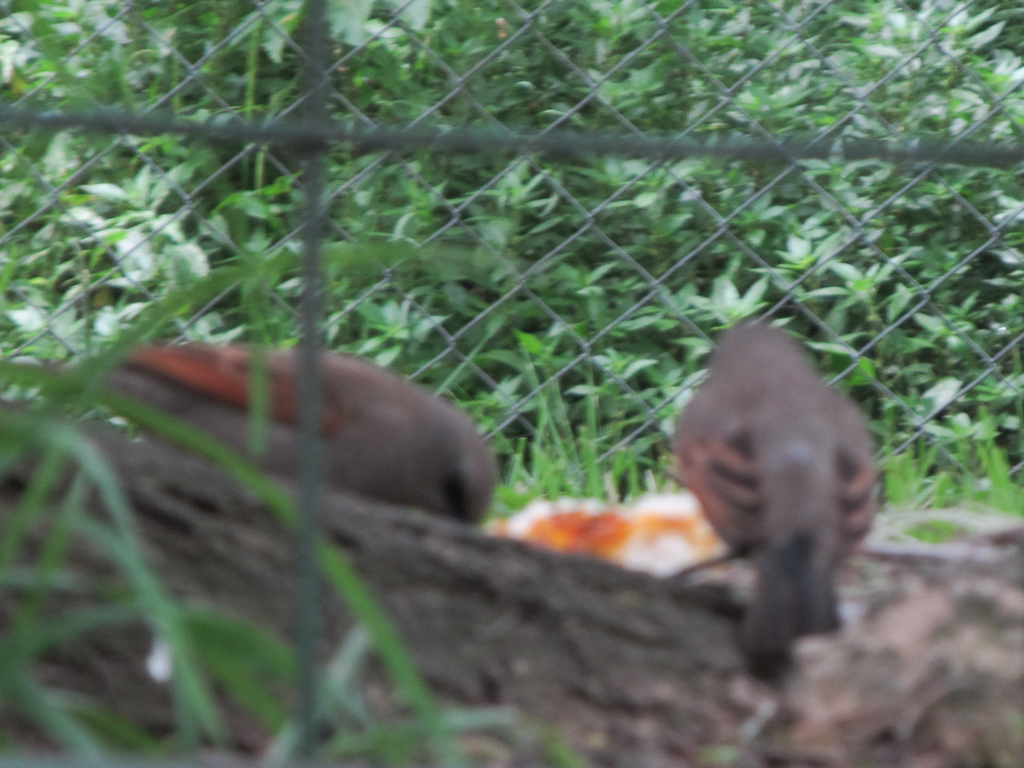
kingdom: Animalia
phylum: Chordata
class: Aves
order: Passeriformes
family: Icteridae
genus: Agelaioides
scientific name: Agelaioides badius
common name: Baywing
